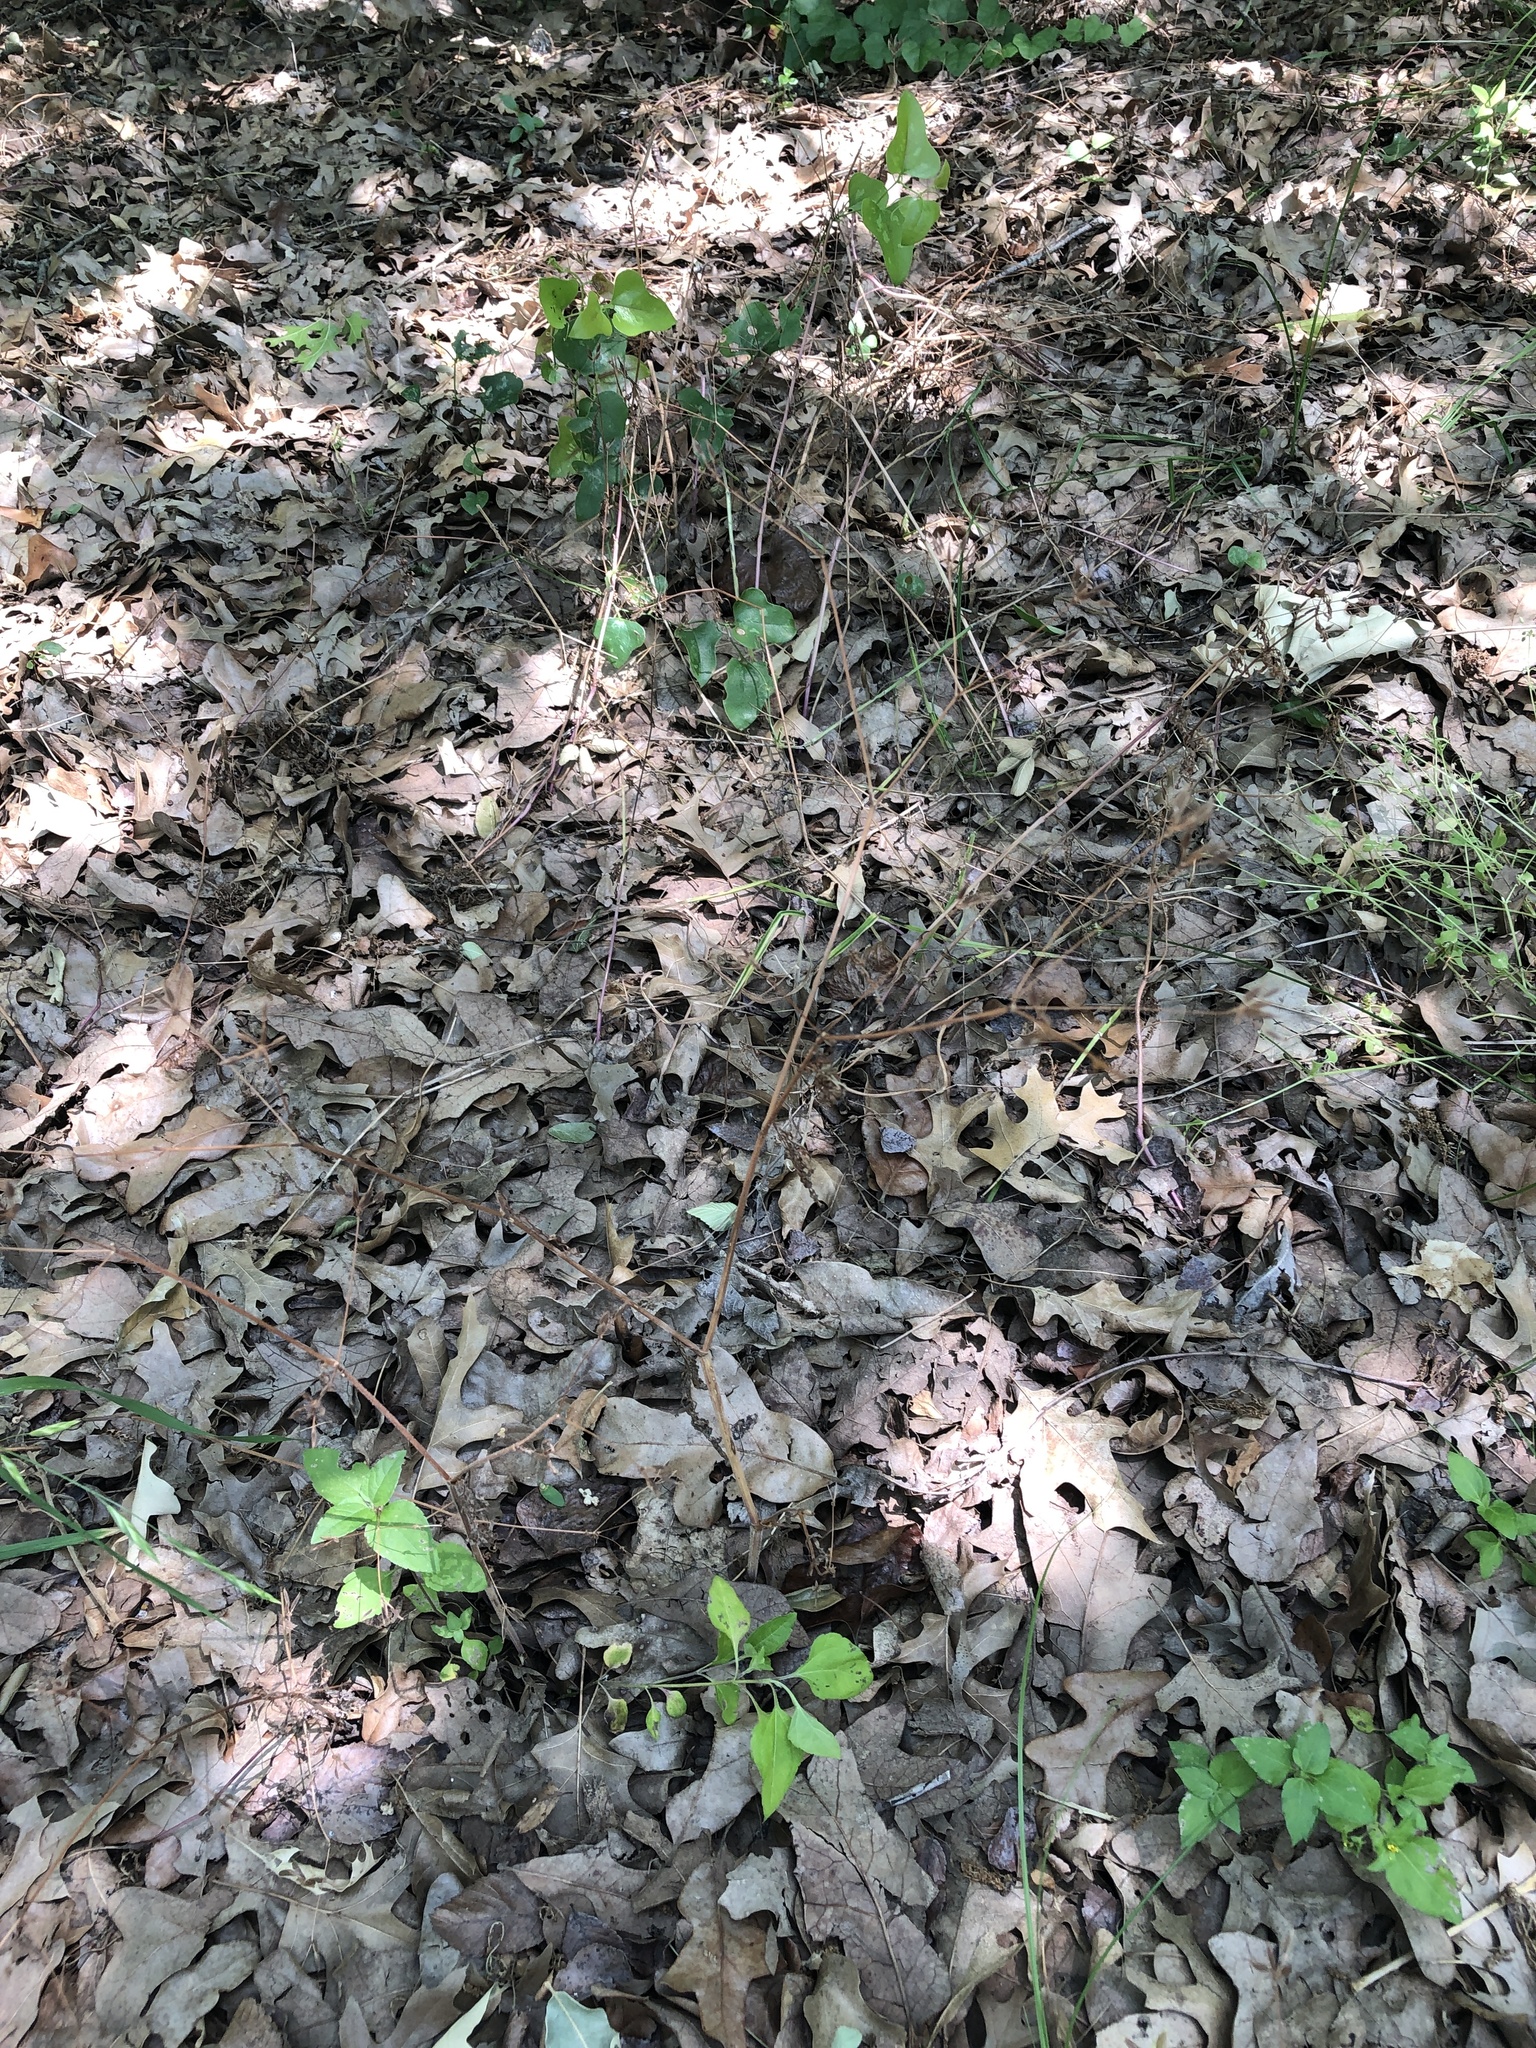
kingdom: Plantae
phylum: Tracheophyta
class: Magnoliopsida
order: Apiales
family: Apiaceae
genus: Chaerophyllum
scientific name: Chaerophyllum tainturieri
